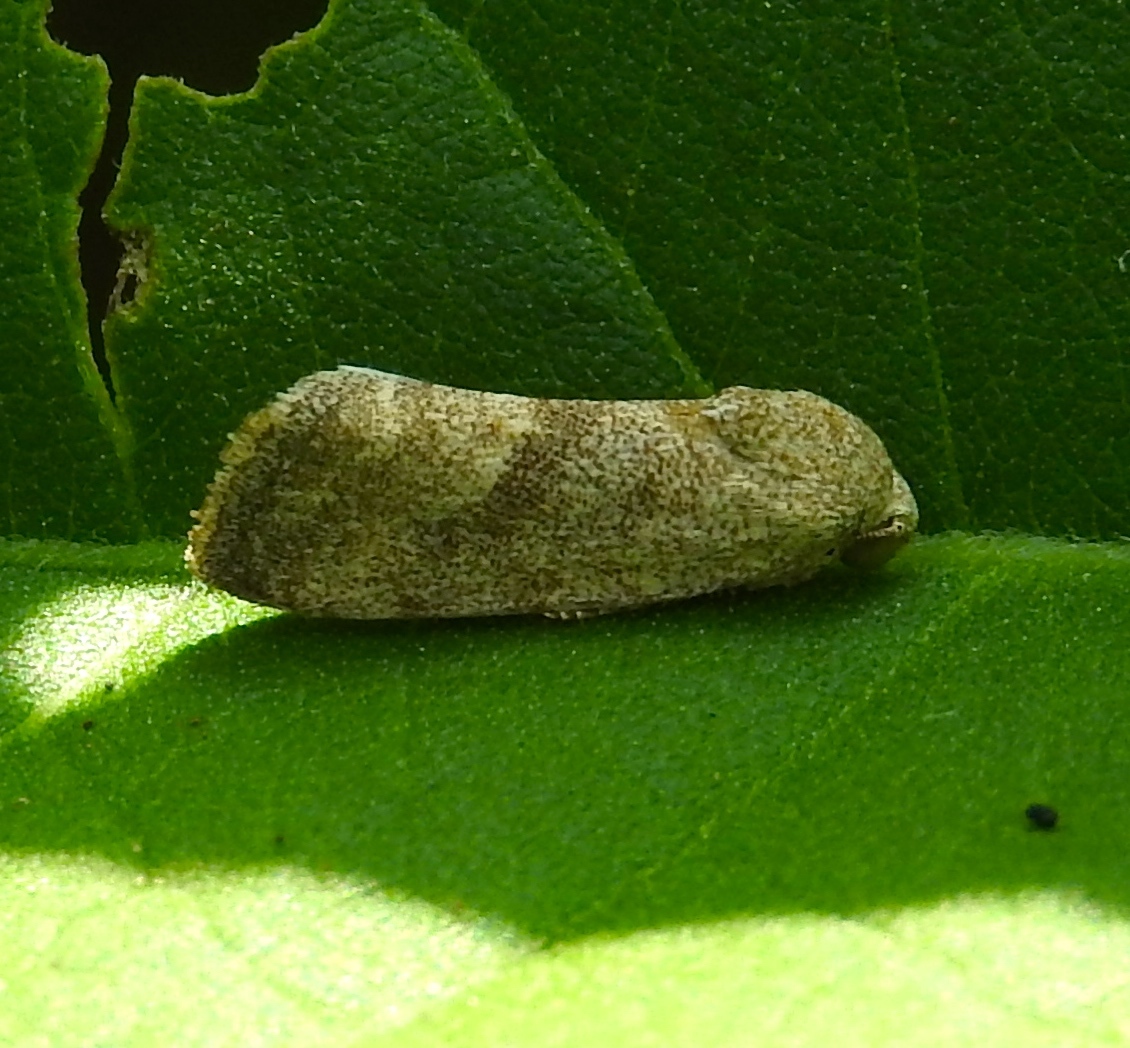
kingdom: Animalia
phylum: Arthropoda
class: Insecta
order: Lepidoptera
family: Noctuidae
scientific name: Noctuidae
